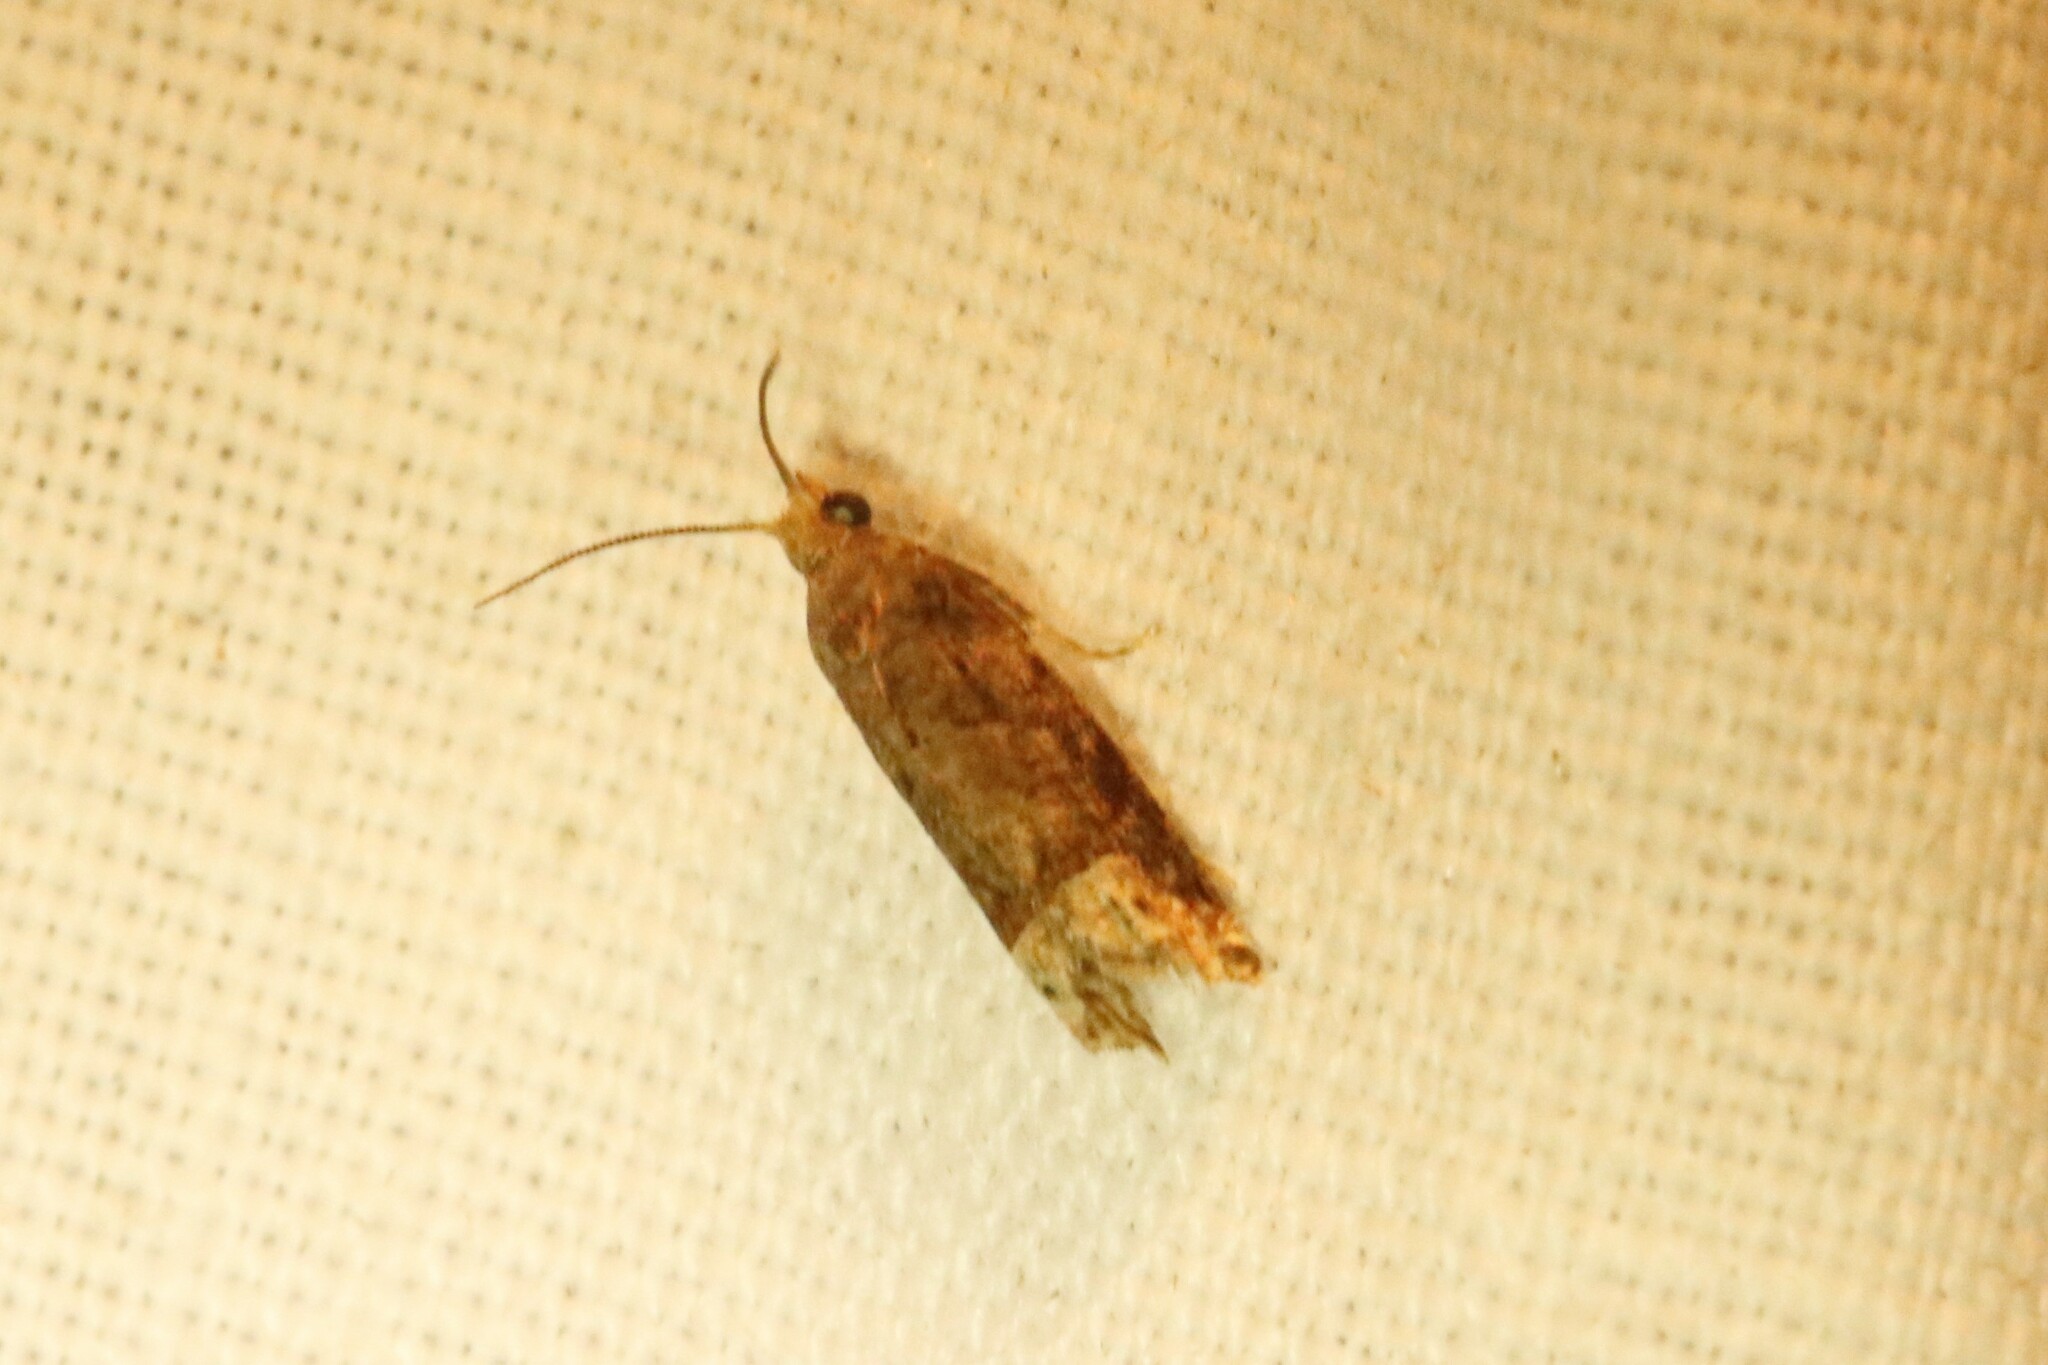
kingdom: Animalia
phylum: Arthropoda
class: Insecta
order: Lepidoptera
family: Tortricidae
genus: Eucosma
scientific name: Eucosma ochroterminana
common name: Buff-tipped eucosma moth
